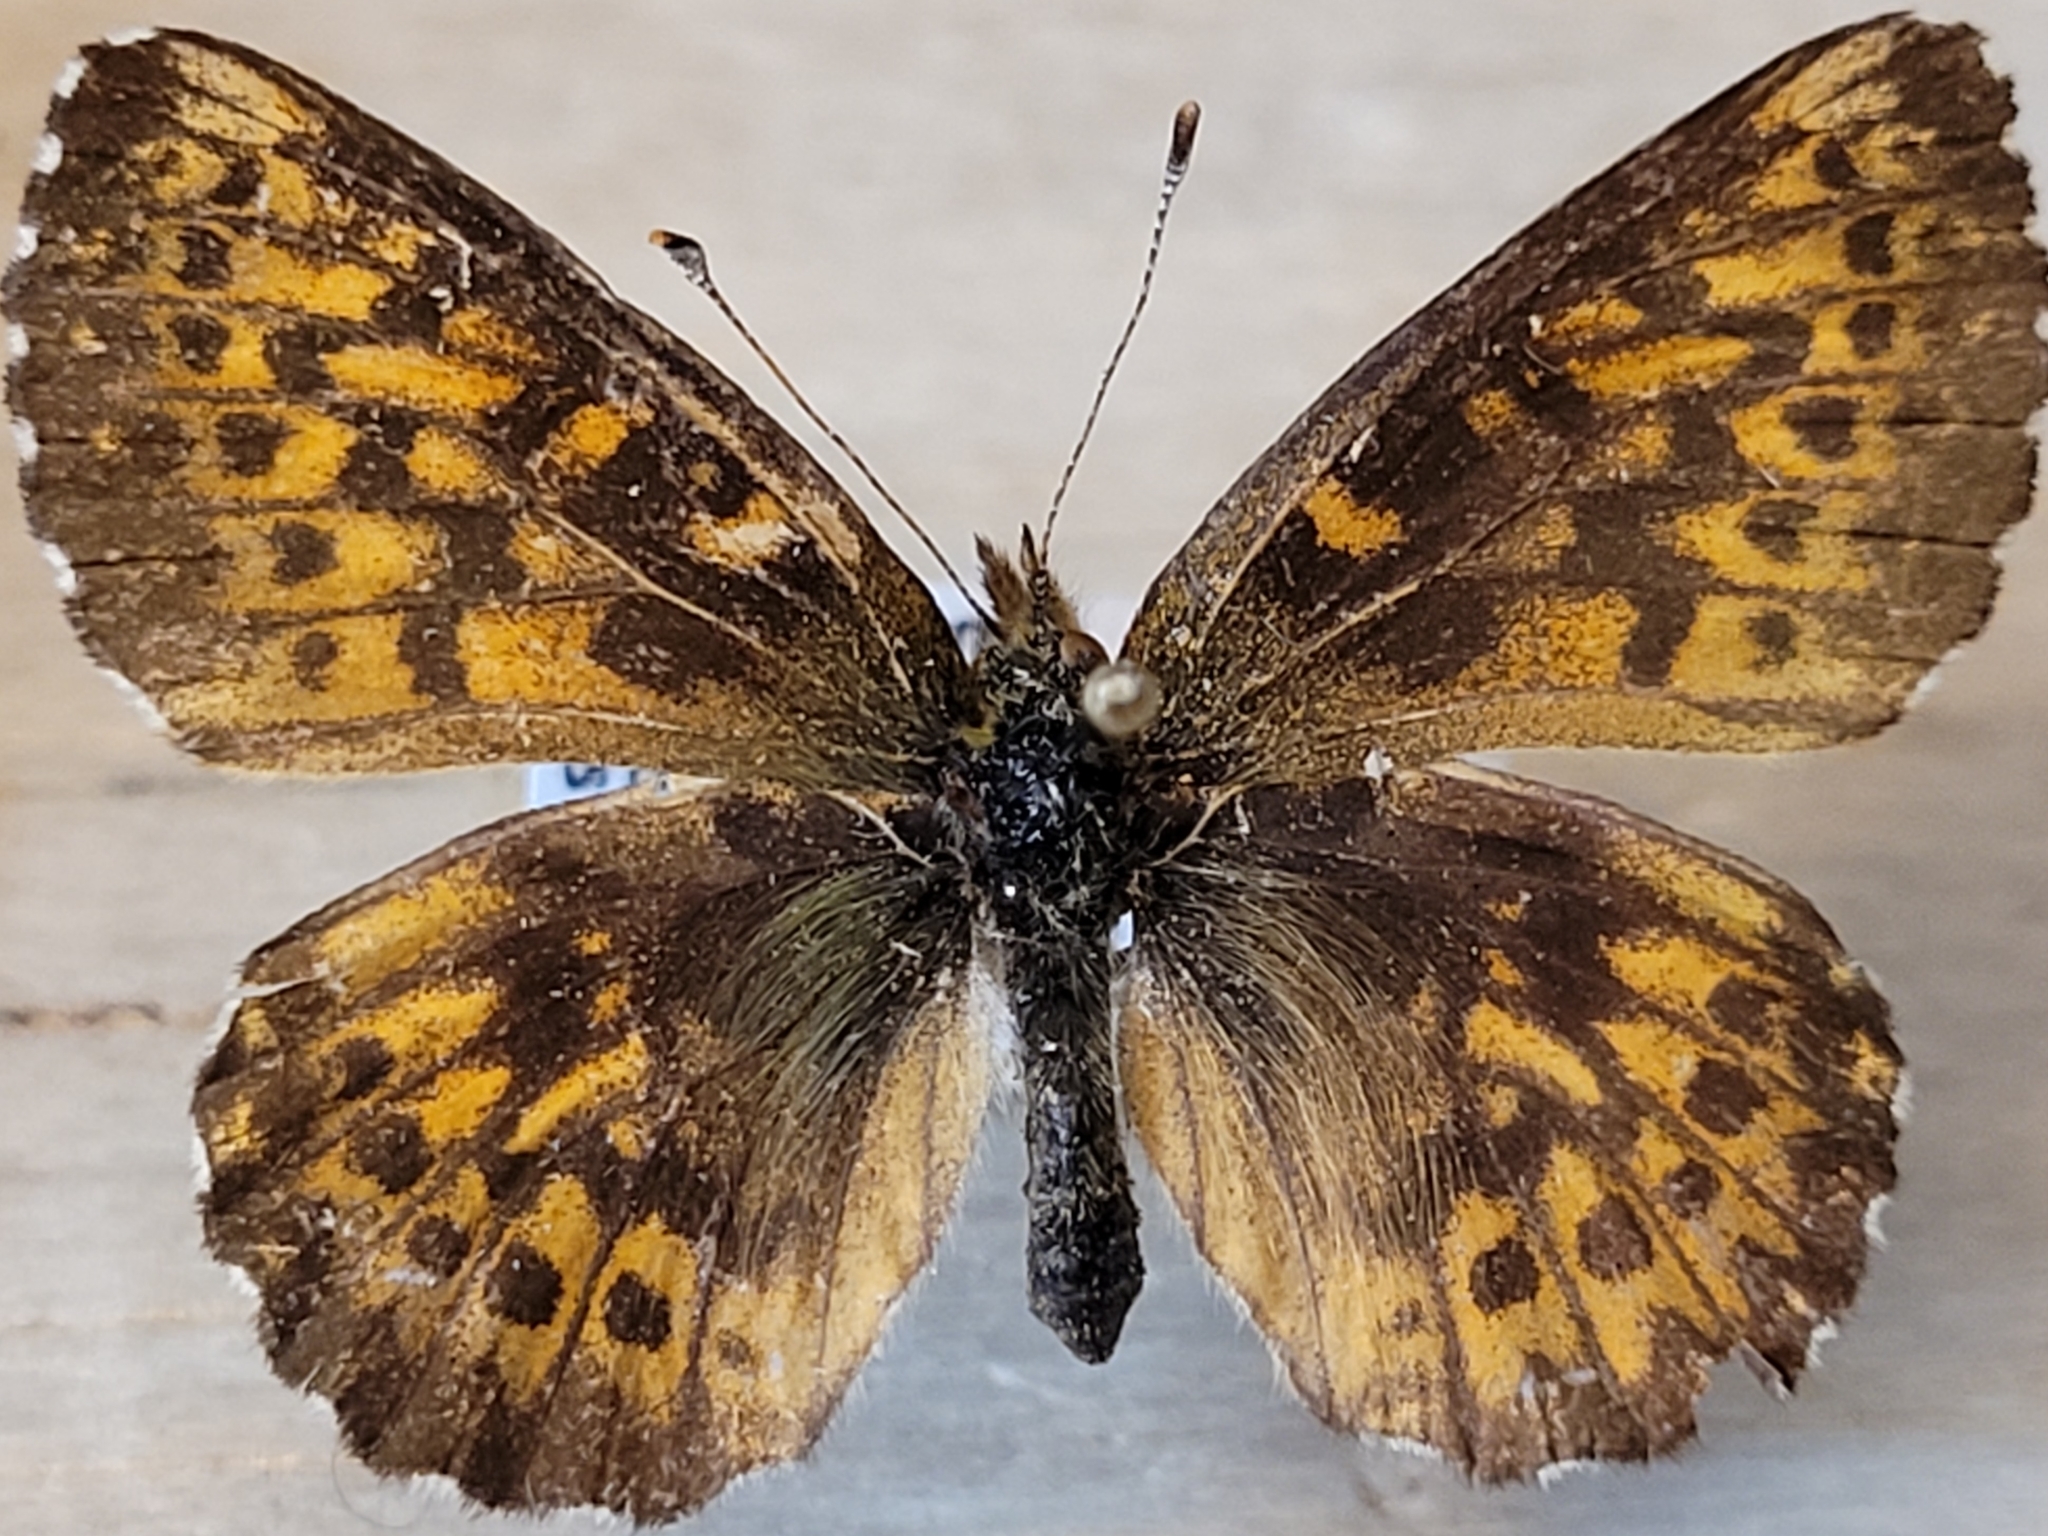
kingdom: Animalia
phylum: Arthropoda
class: Insecta
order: Lepidoptera
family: Nymphalidae
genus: Clossiana
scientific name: Clossiana chariclea
